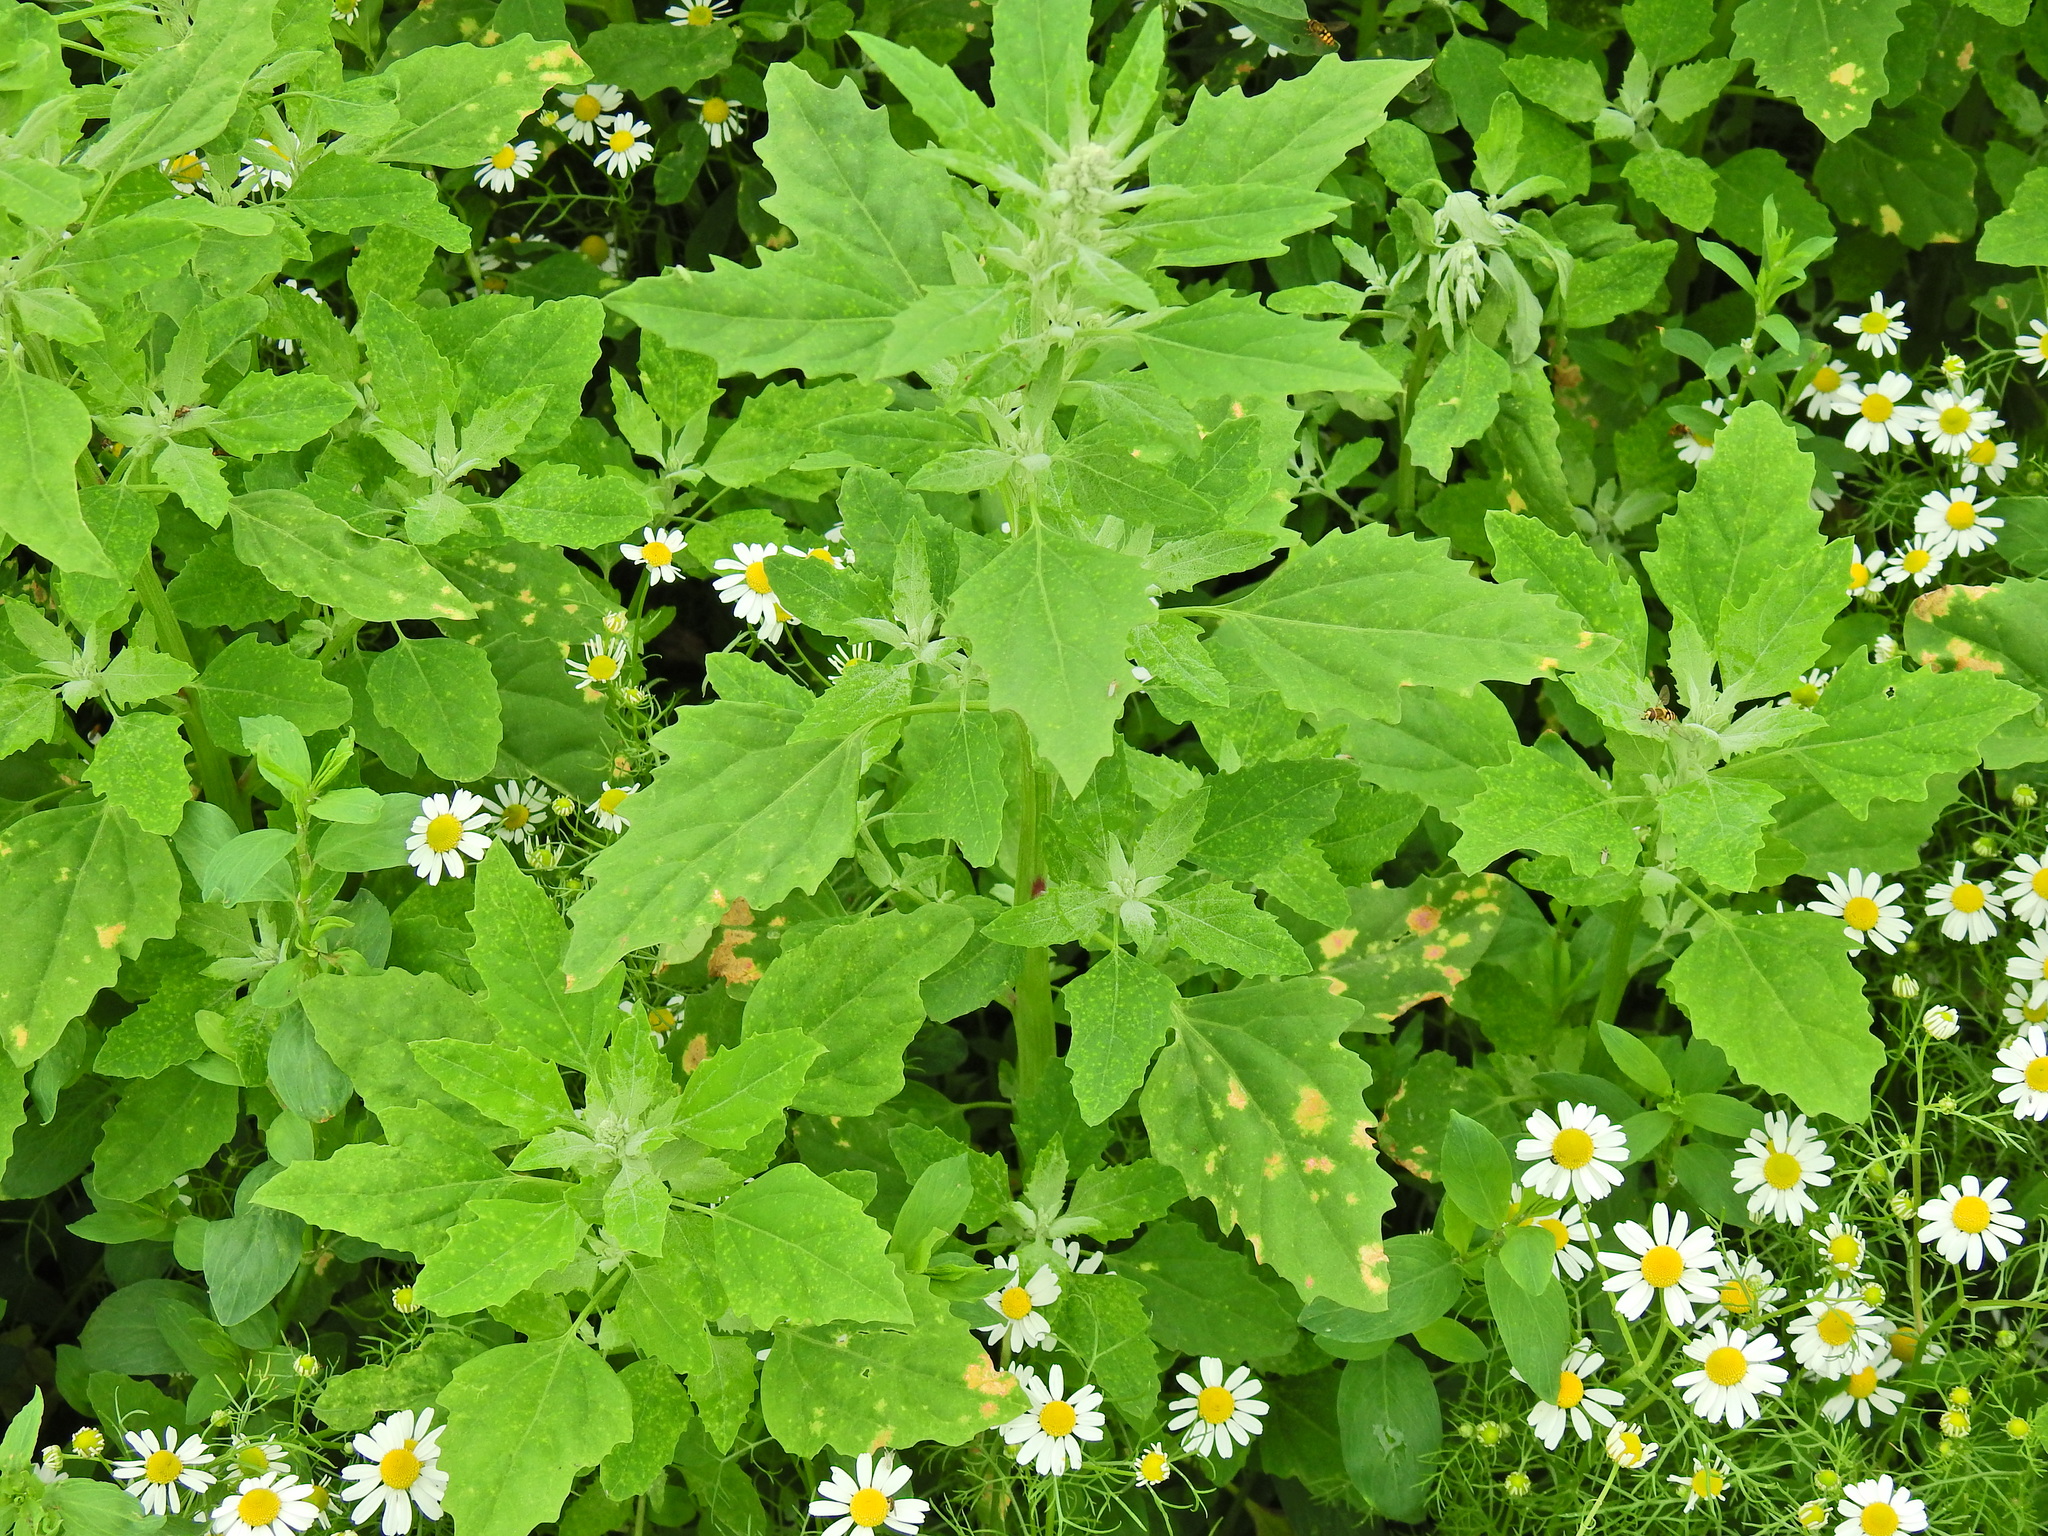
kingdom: Plantae
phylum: Tracheophyta
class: Magnoliopsida
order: Caryophyllales
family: Amaranthaceae
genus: Chenopodium
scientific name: Chenopodium album
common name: Fat-hen
